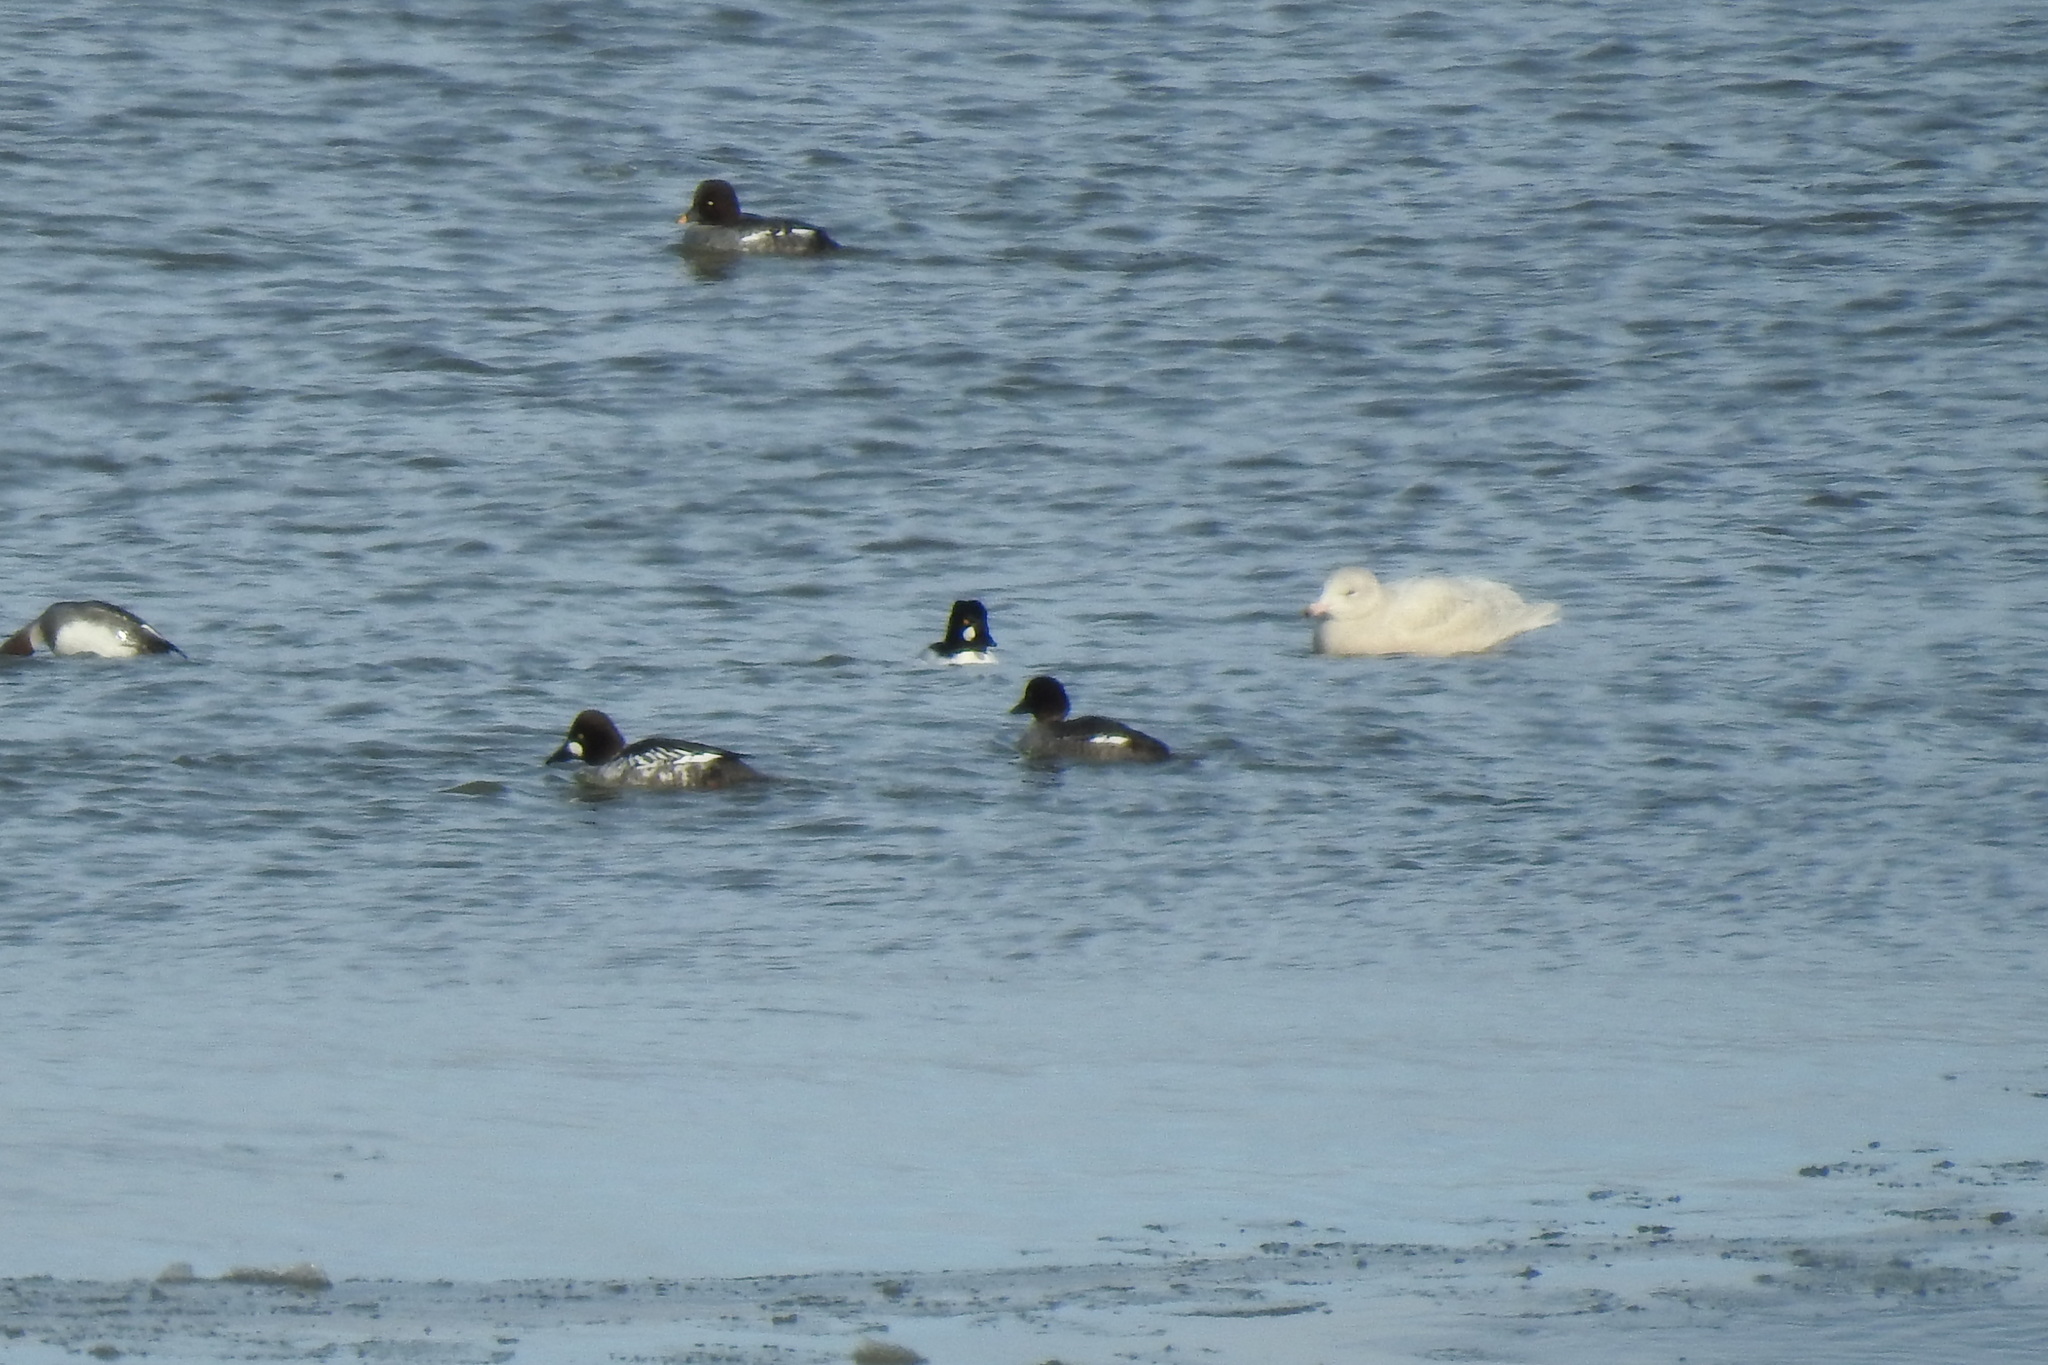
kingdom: Animalia
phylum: Chordata
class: Aves
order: Charadriiformes
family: Laridae
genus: Larus
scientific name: Larus hyperboreus
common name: Glaucous gull
